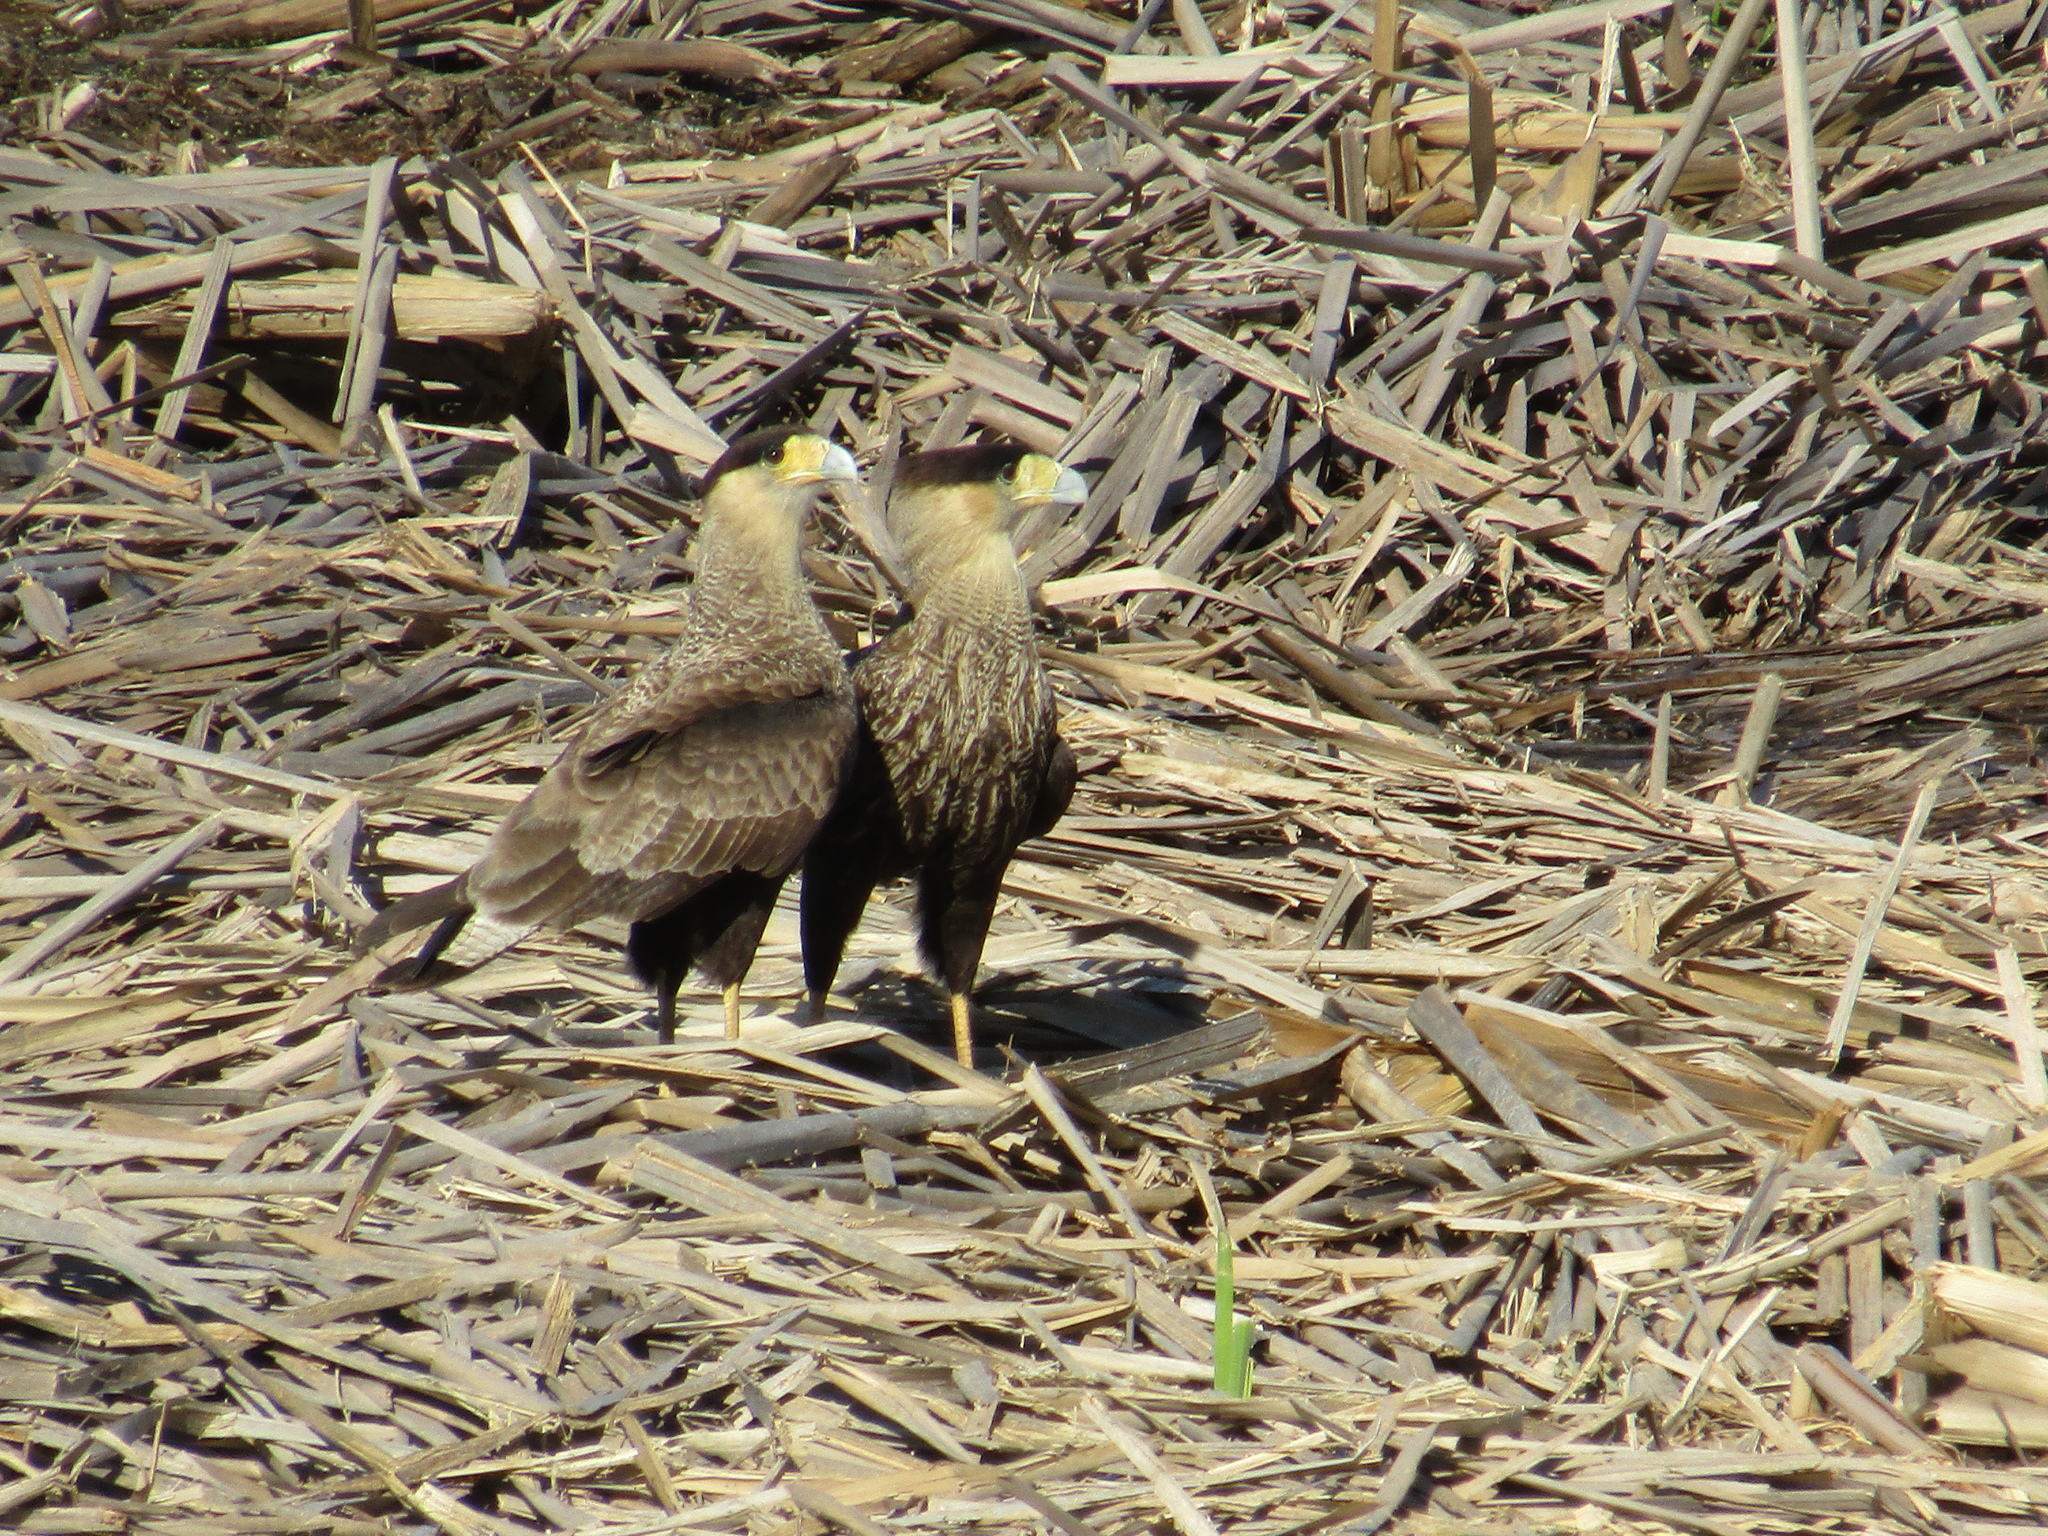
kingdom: Animalia
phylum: Chordata
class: Aves
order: Falconiformes
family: Falconidae
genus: Caracara
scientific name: Caracara plancus
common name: Southern caracara
